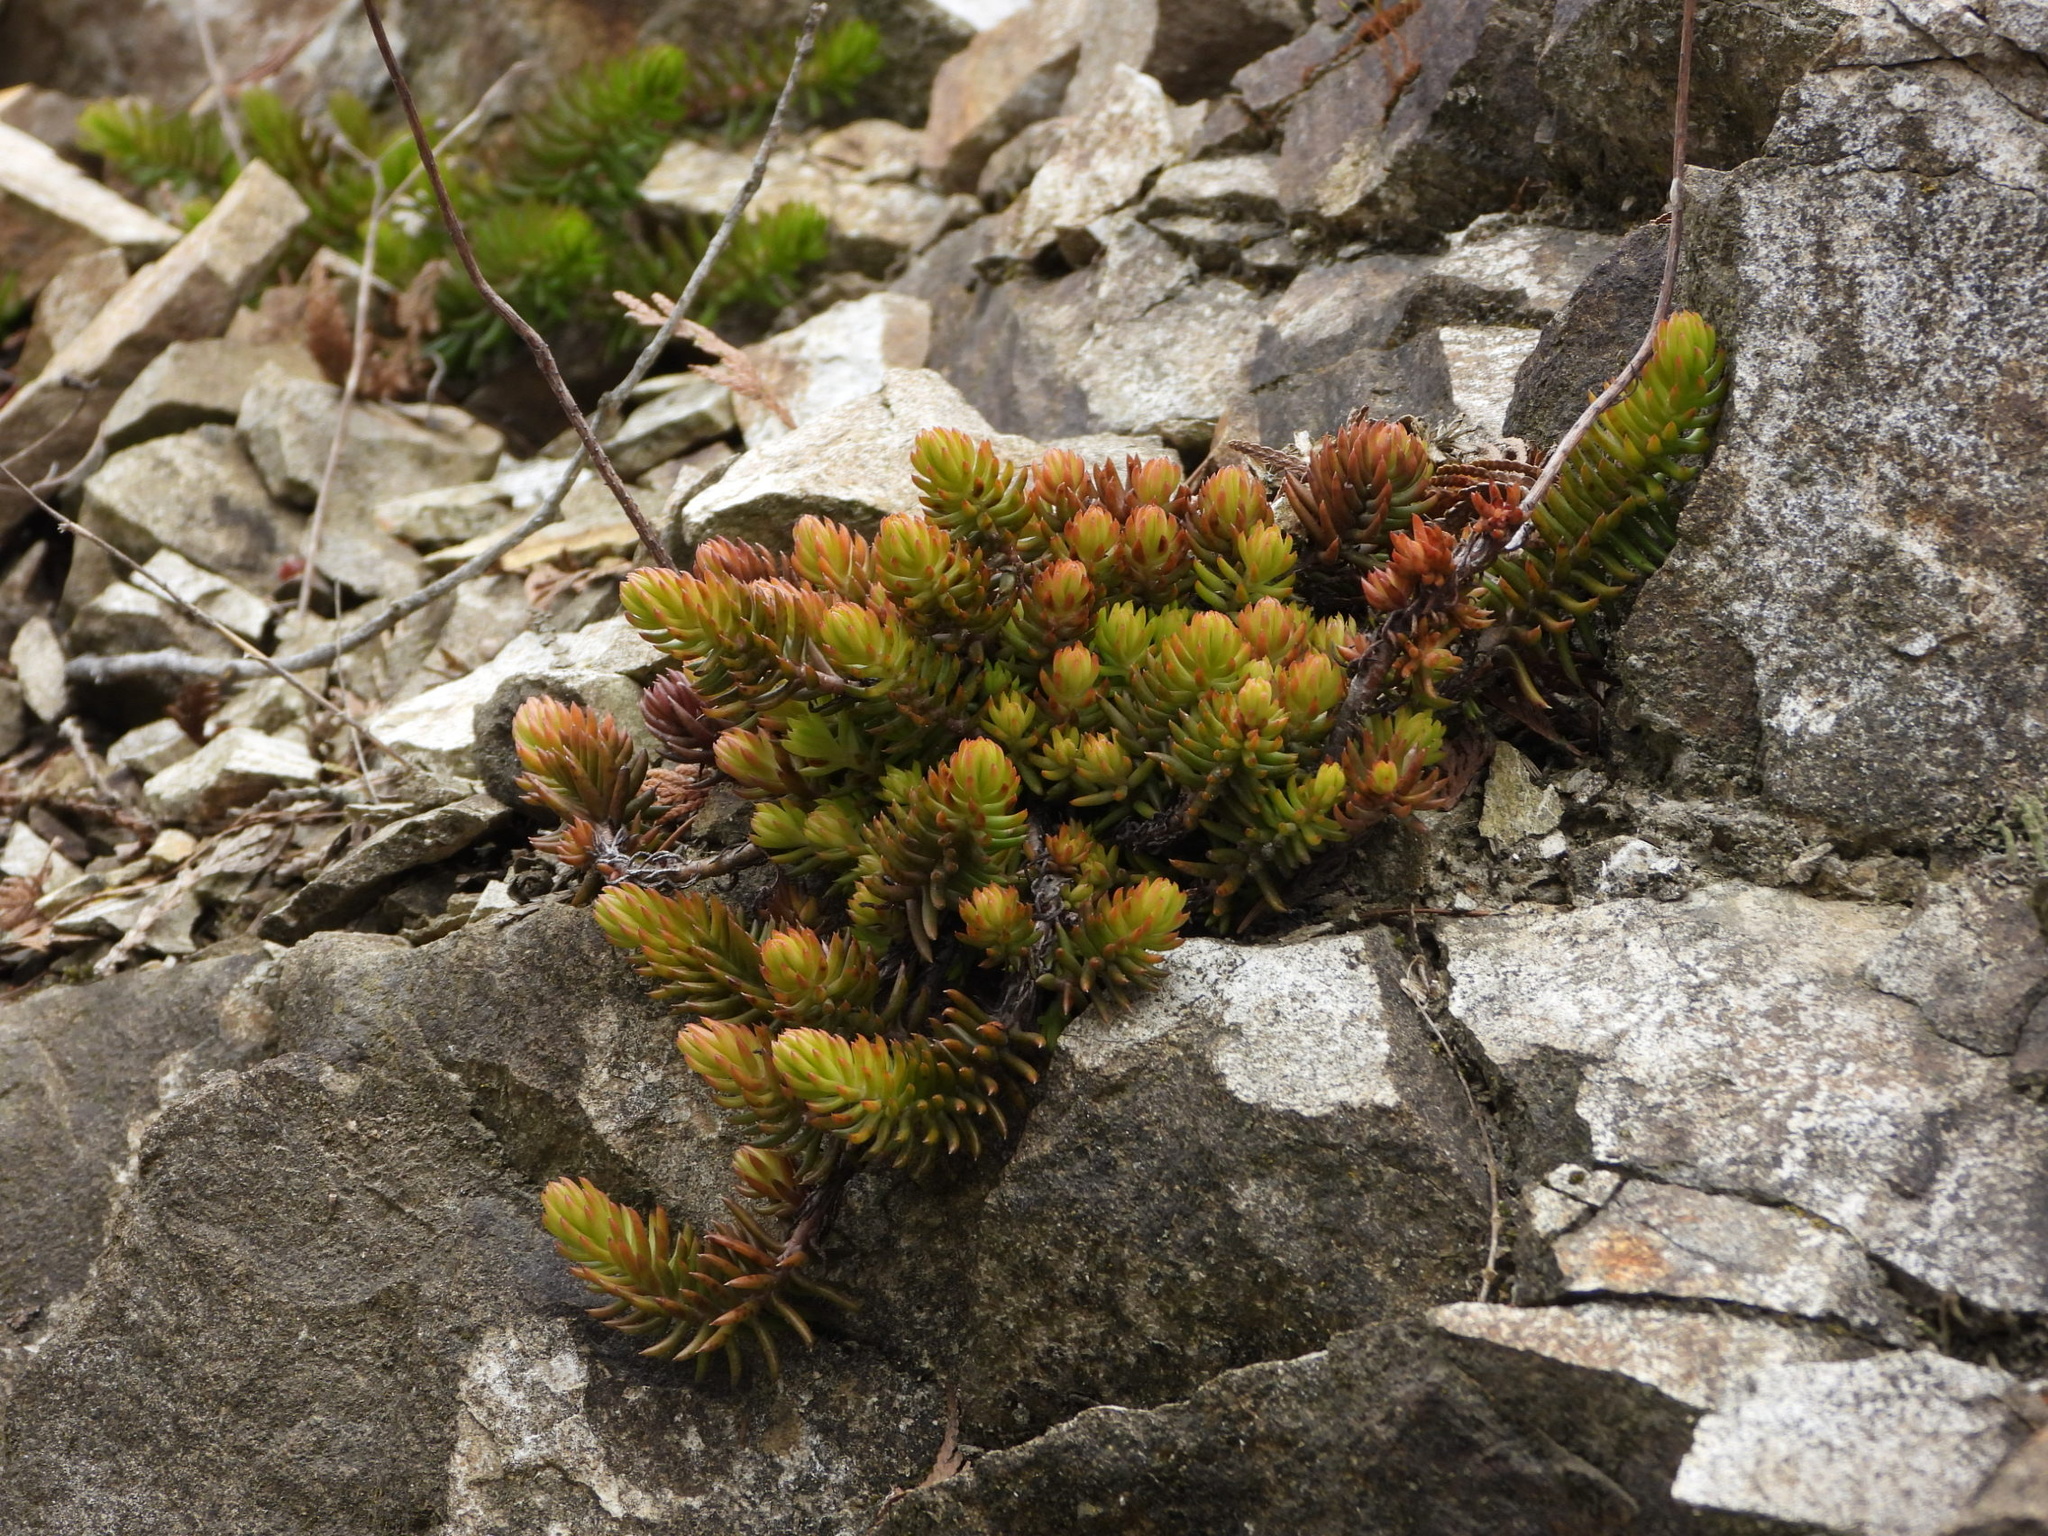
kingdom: Plantae
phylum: Tracheophyta
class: Magnoliopsida
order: Saxifragales
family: Crassulaceae
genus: Petrosedum
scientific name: Petrosedum rupestre
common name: Jenny's stonecrop
